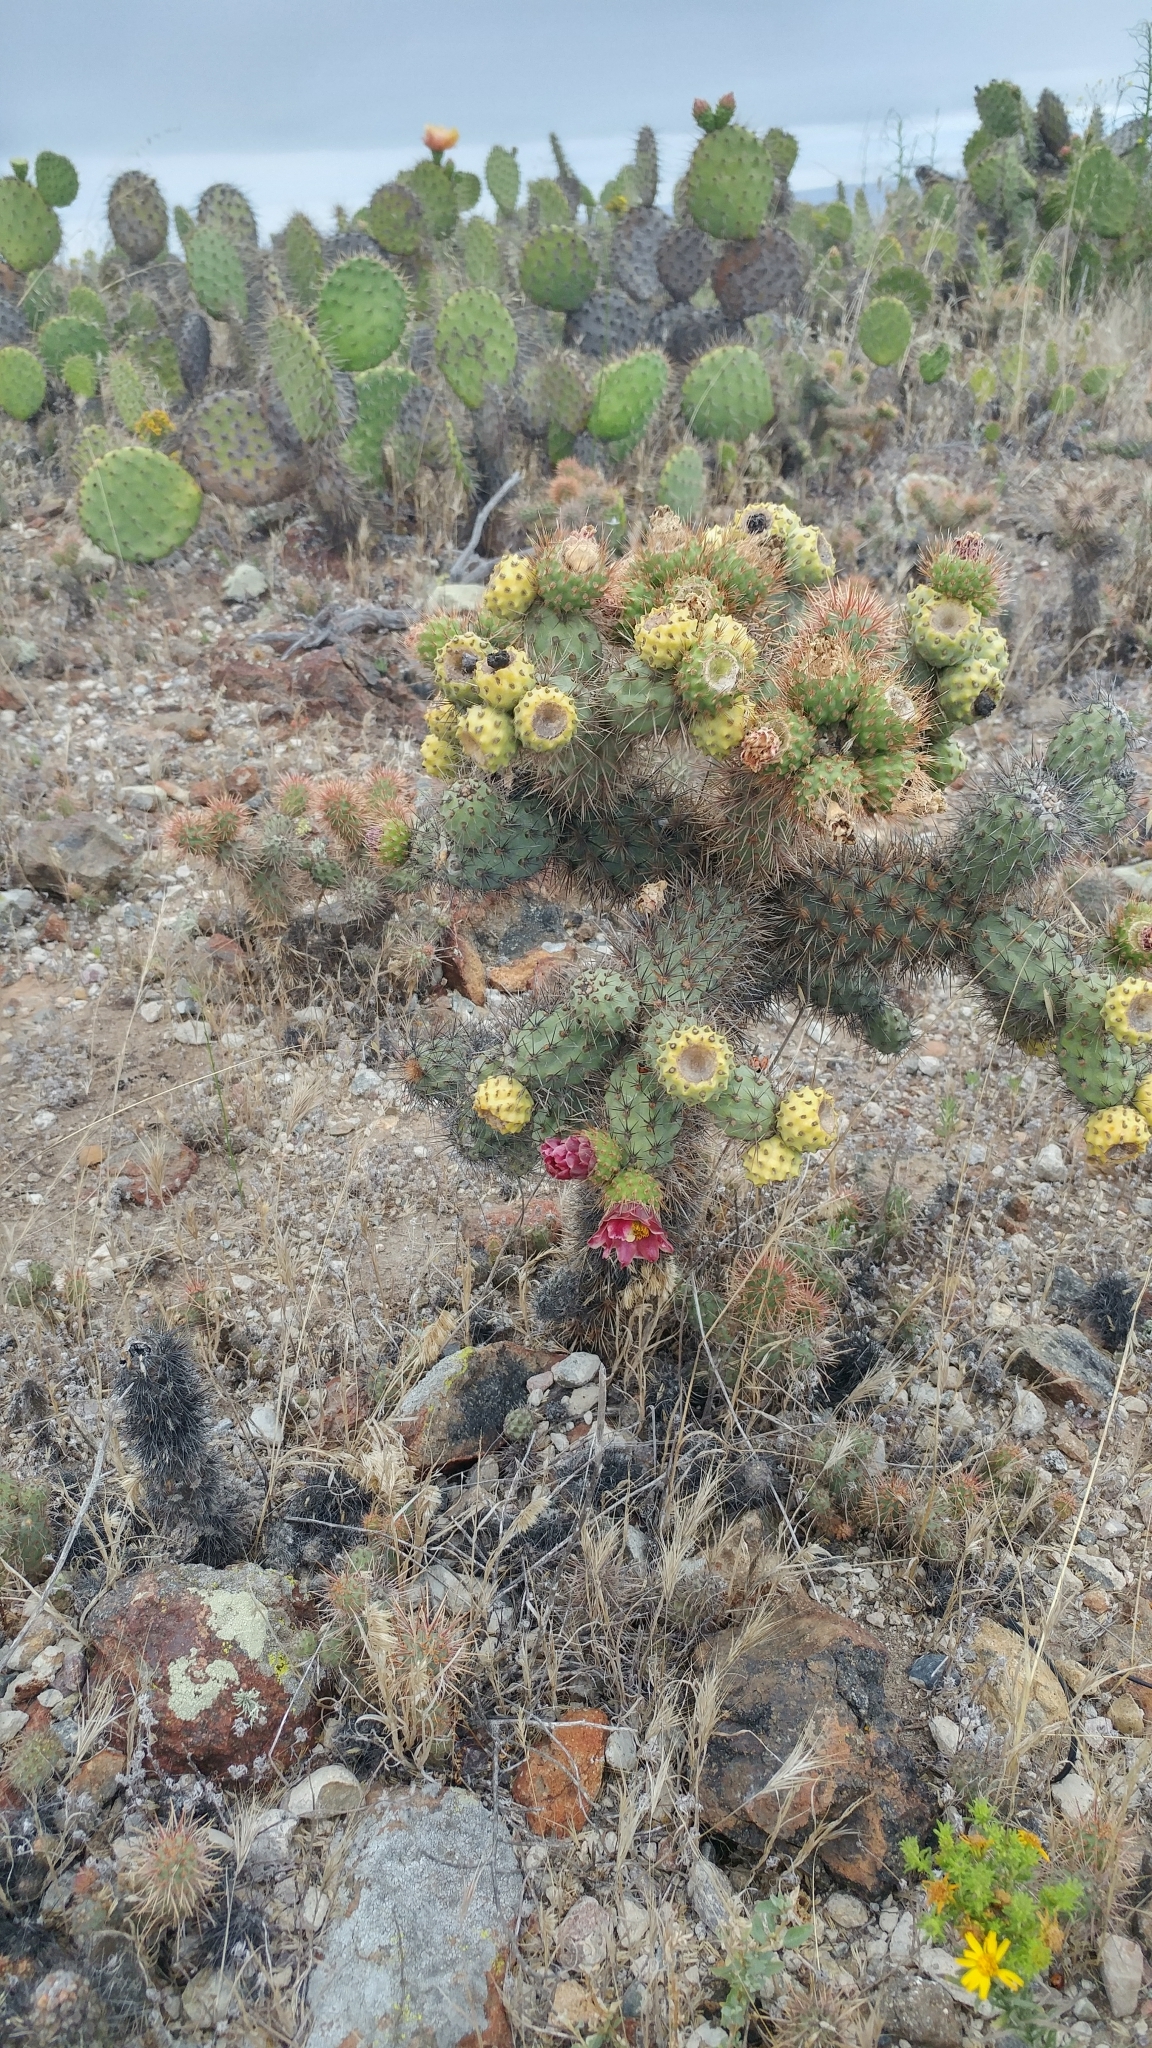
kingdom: Plantae
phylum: Tracheophyta
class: Magnoliopsida
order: Caryophyllales
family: Cactaceae
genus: Cylindropuntia
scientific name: Cylindropuntia prolifera
